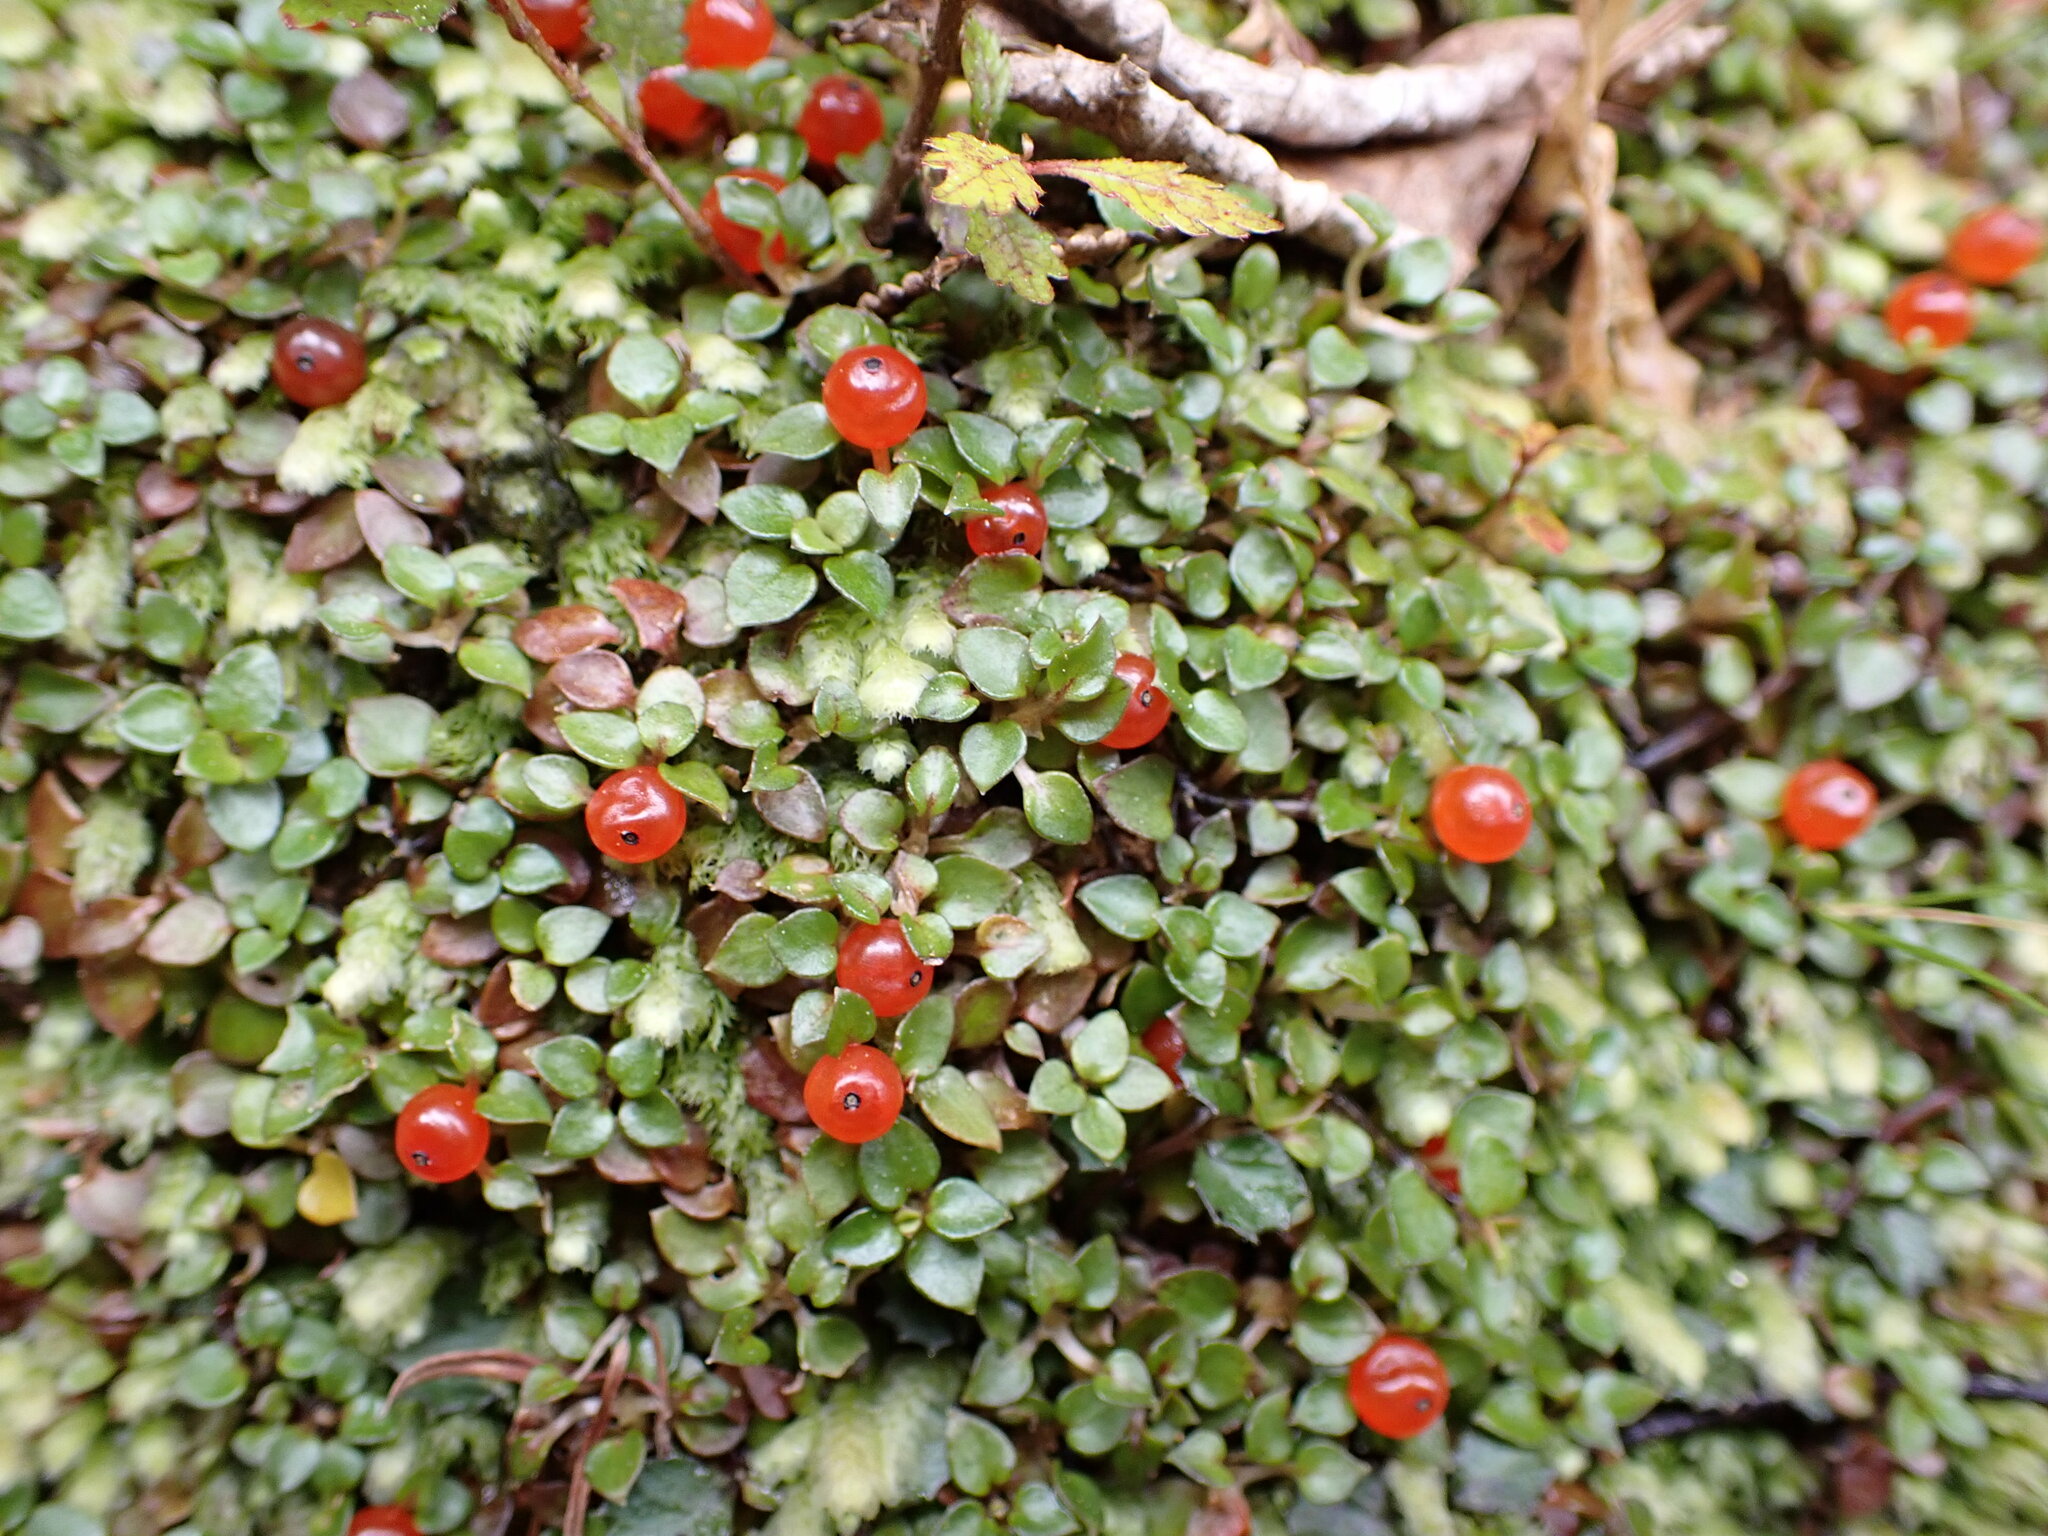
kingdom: Plantae
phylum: Tracheophyta
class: Magnoliopsida
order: Gentianales
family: Rubiaceae
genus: Nertera
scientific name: Nertera granadensis
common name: Beadplant
